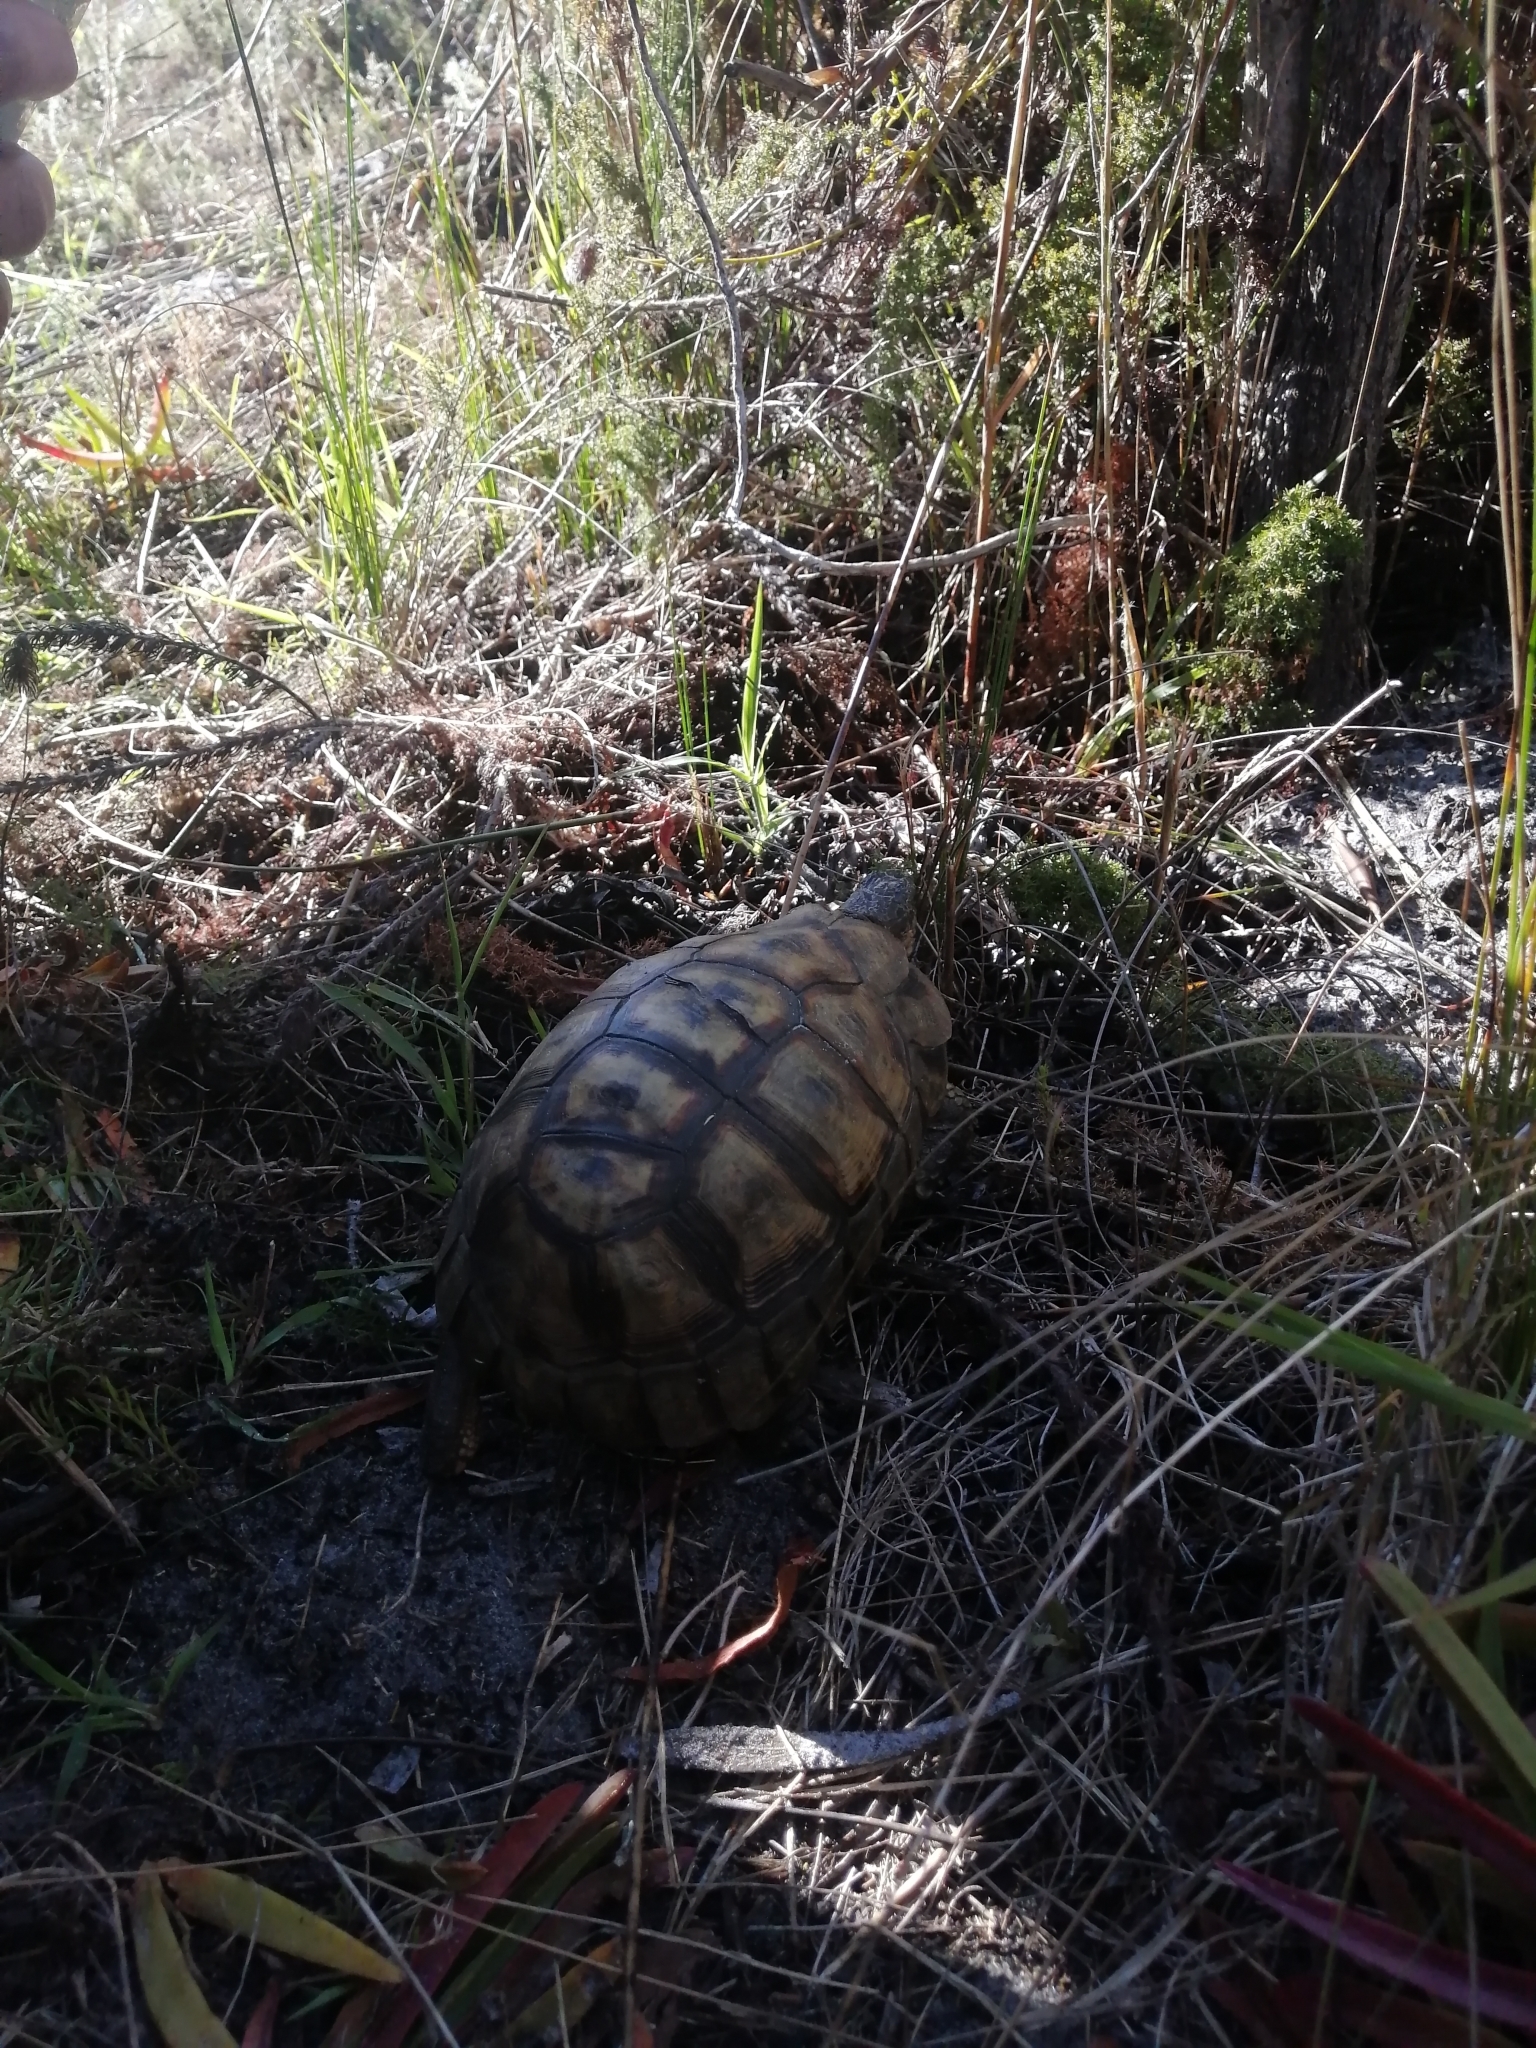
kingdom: Animalia
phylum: Chordata
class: Testudines
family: Testudinidae
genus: Chersina
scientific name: Chersina angulata
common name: South african bowsprit tortoise
